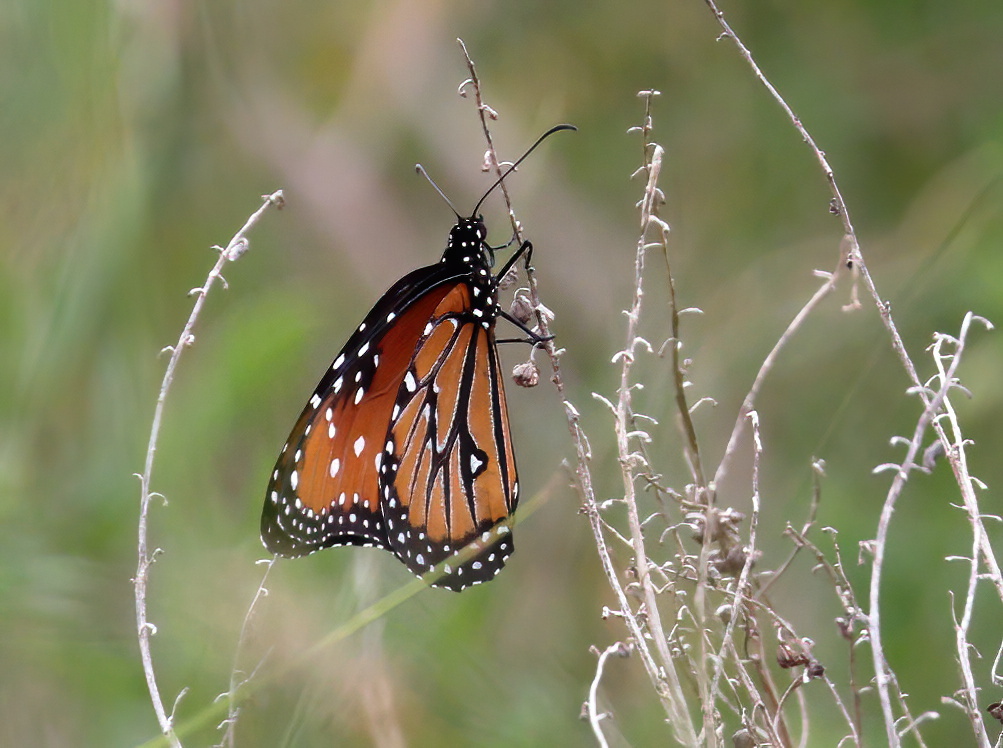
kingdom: Animalia
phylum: Arthropoda
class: Insecta
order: Lepidoptera
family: Nymphalidae
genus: Danaus
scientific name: Danaus gilippus
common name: Queen
